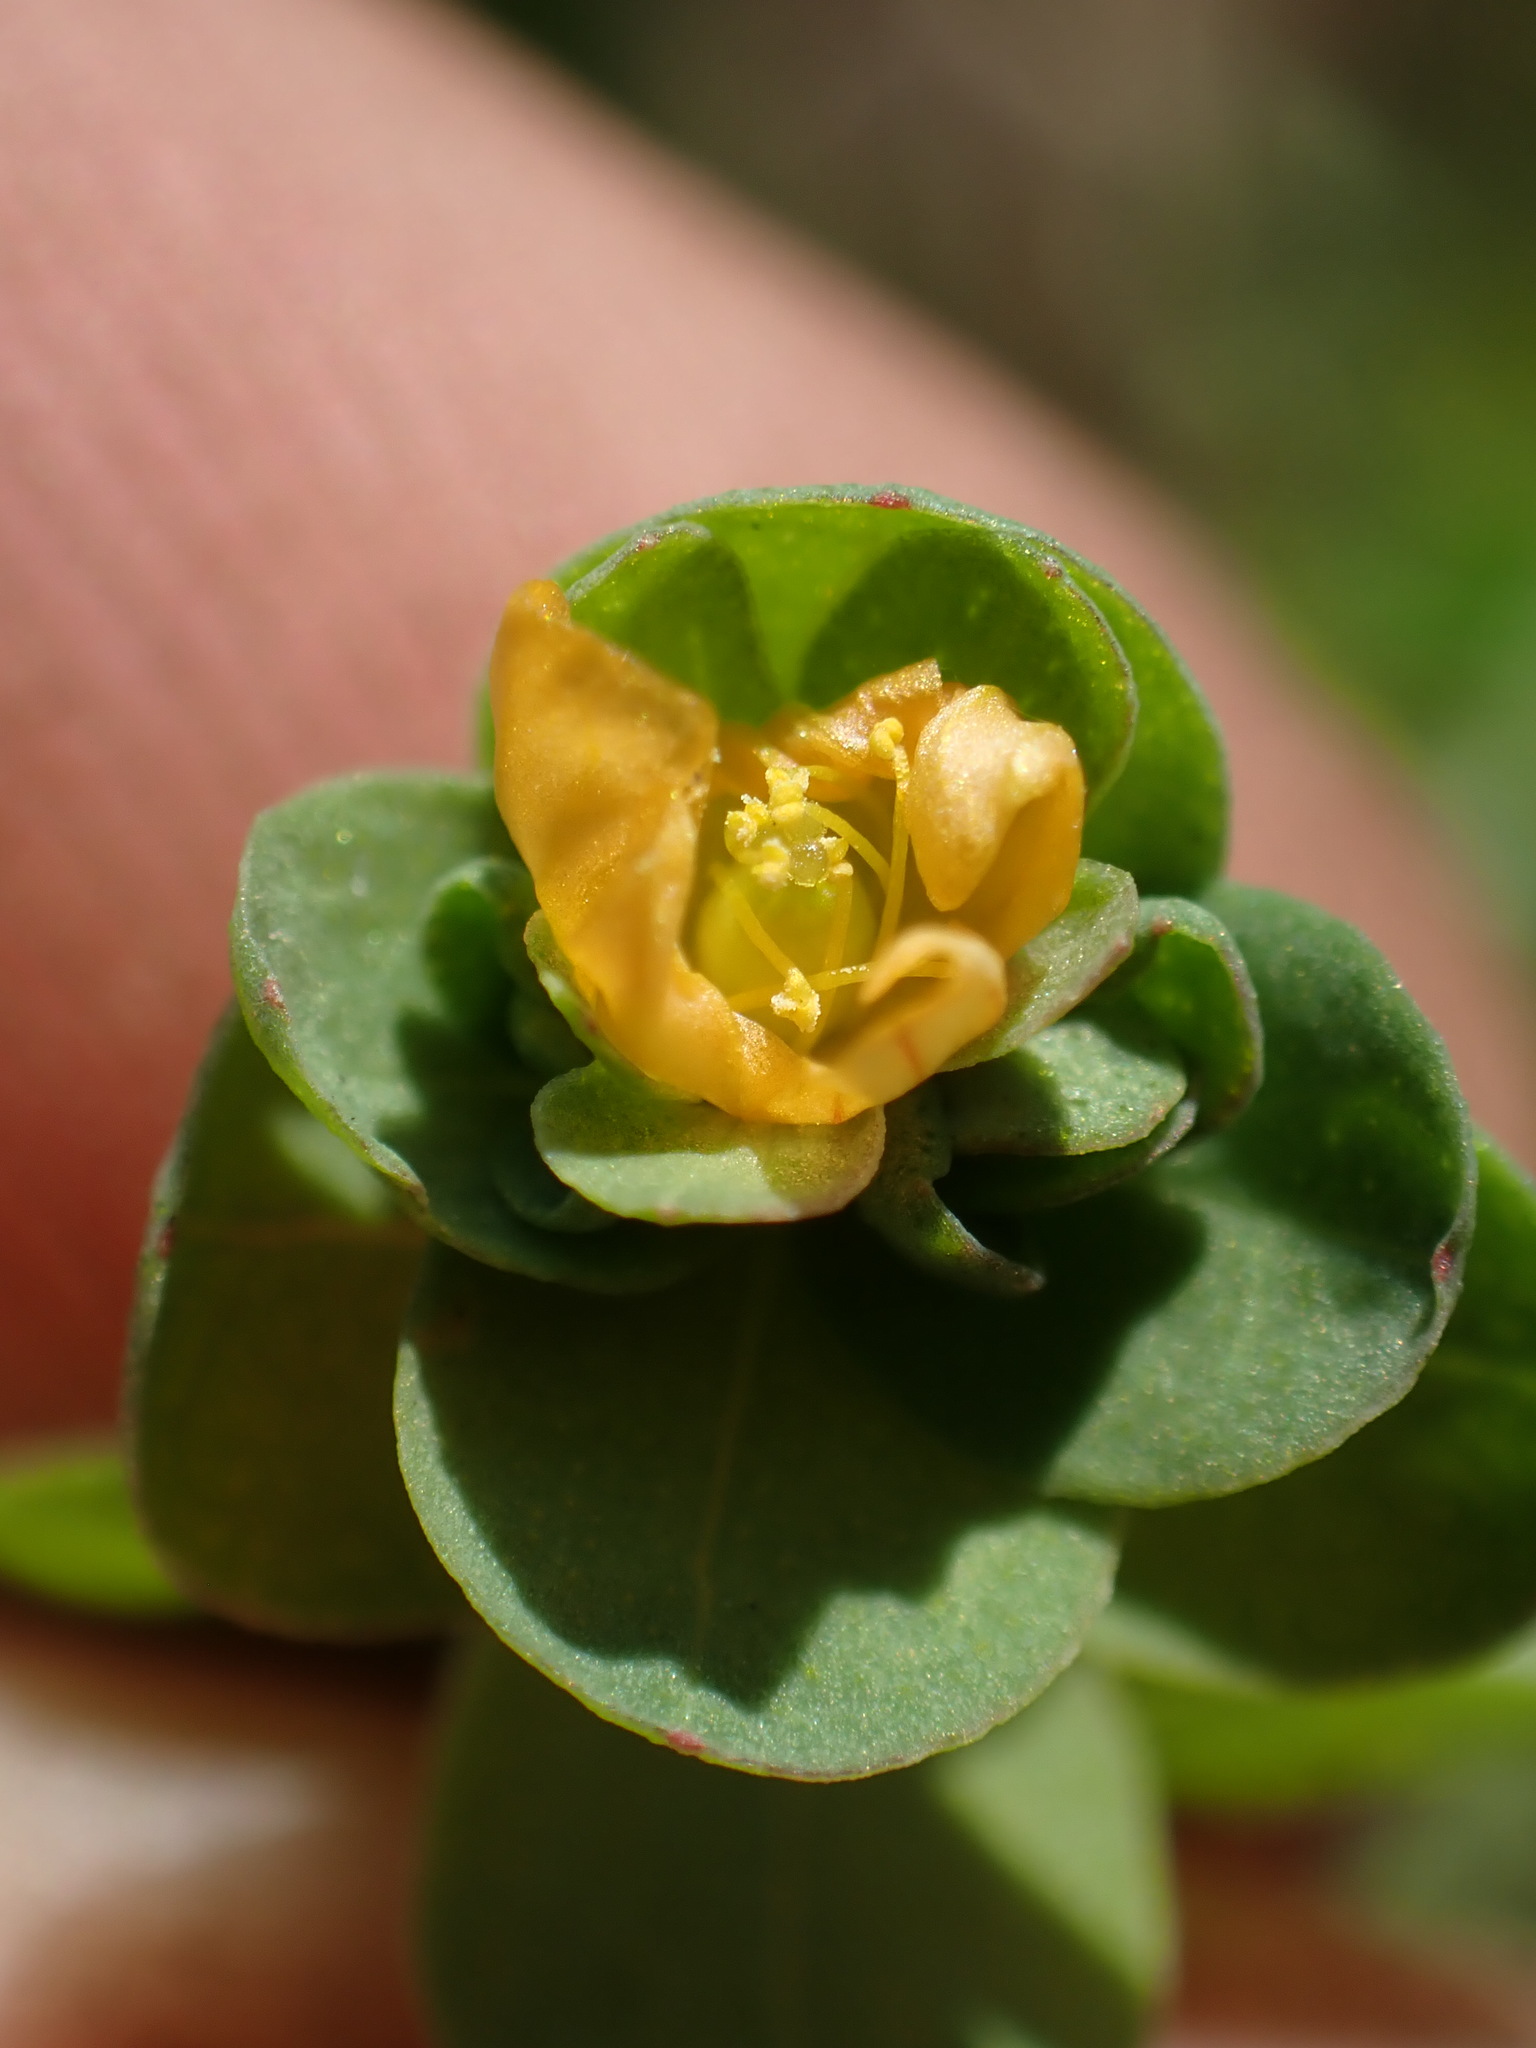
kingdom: Plantae
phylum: Tracheophyta
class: Magnoliopsida
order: Malpighiales
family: Hypericaceae
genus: Hypericum
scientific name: Hypericum anagalloides
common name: Bog st. john's-wort
